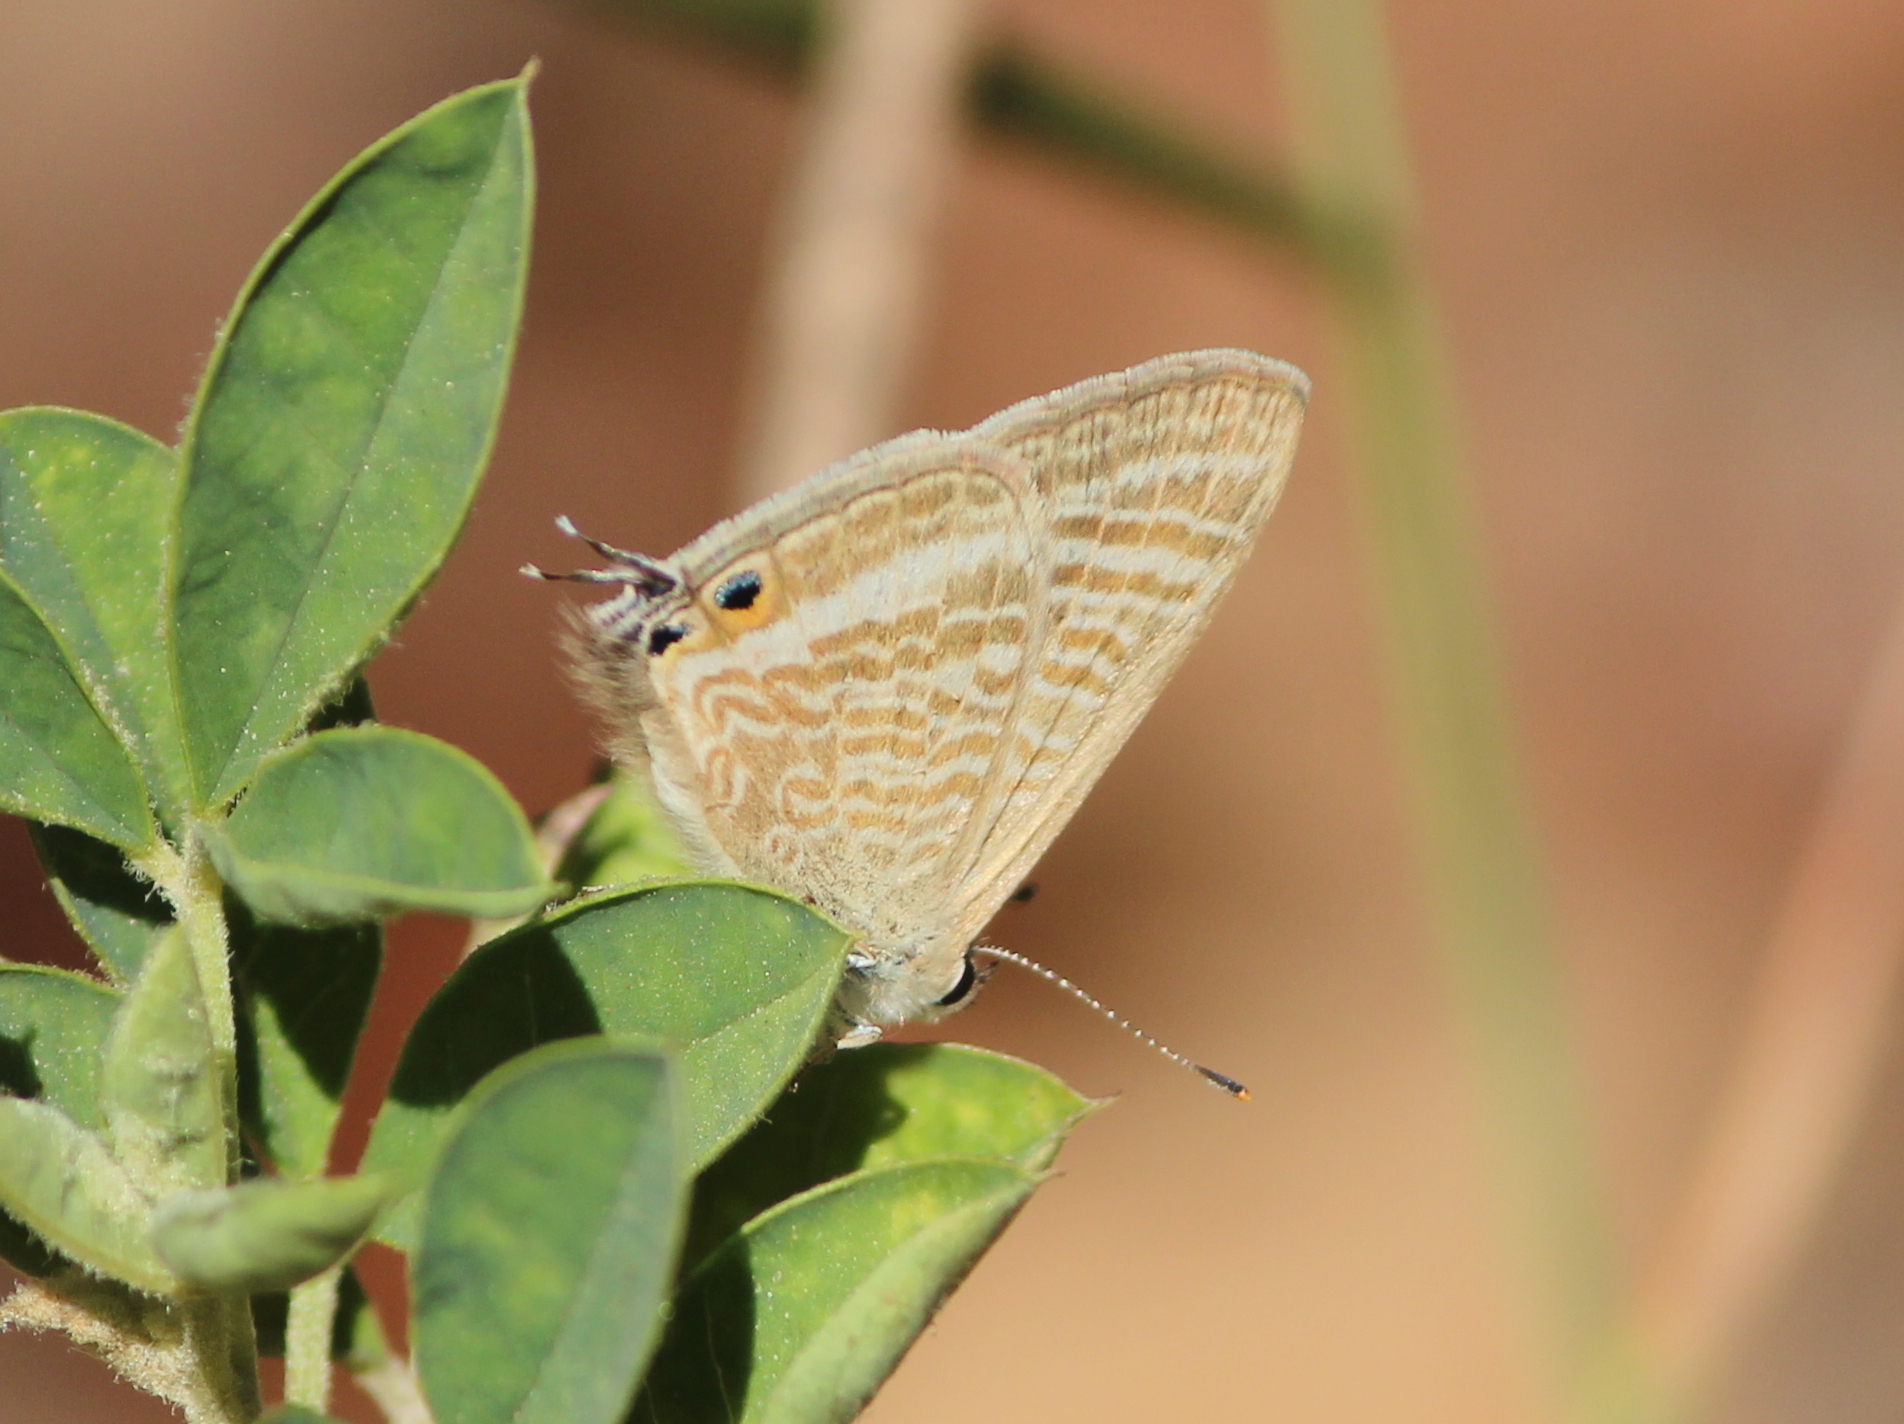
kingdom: Animalia
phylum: Arthropoda
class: Insecta
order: Lepidoptera
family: Lycaenidae
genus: Lampides
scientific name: Lampides boeticus
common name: Long-tailed blue
